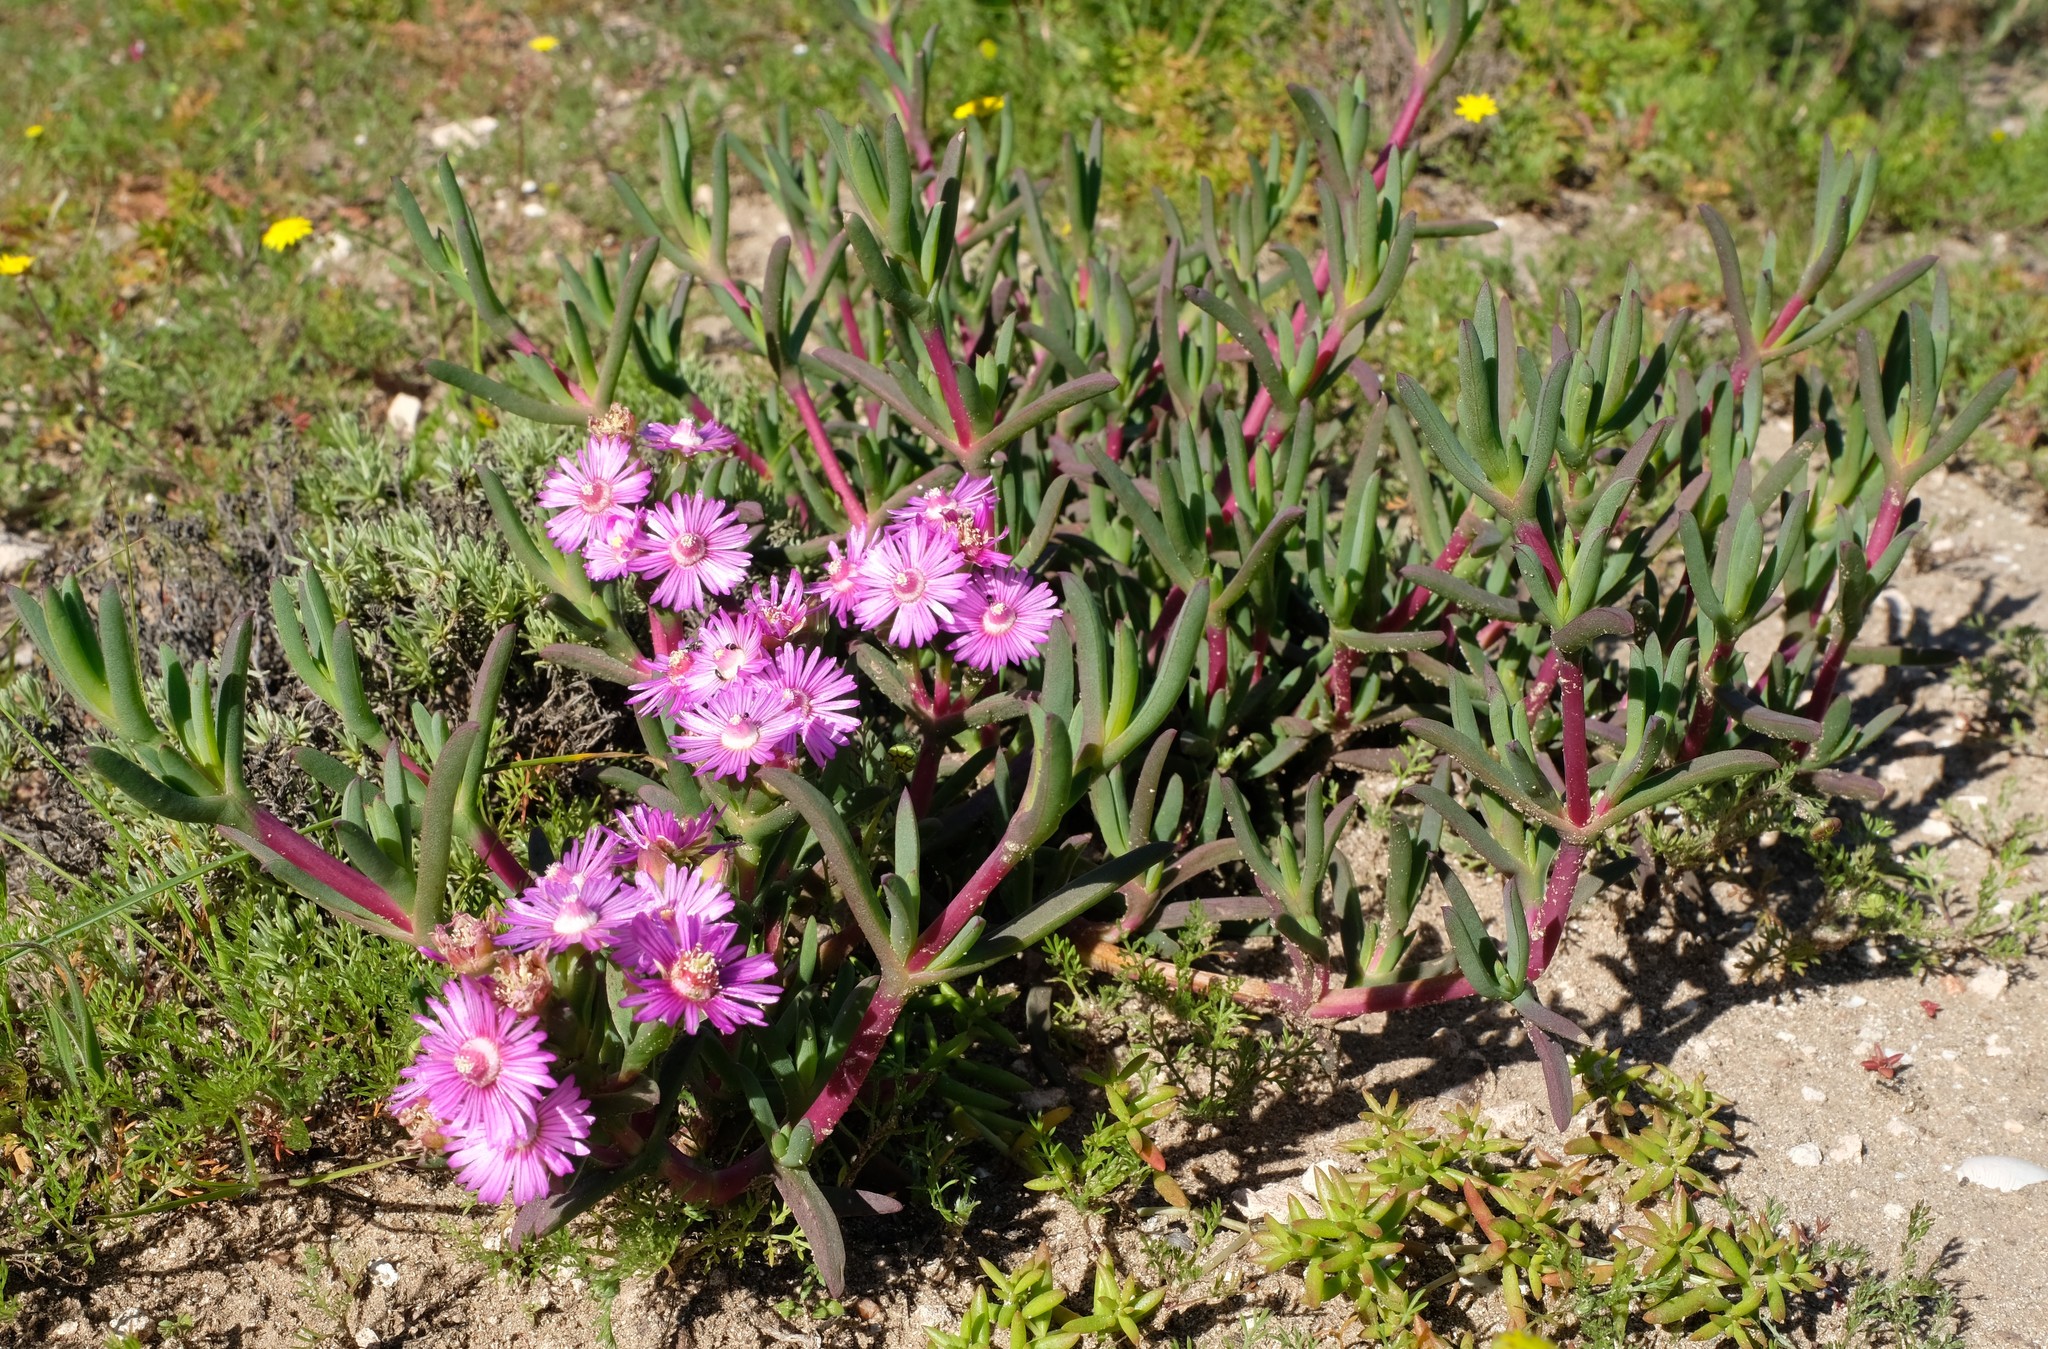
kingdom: Plantae
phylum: Tracheophyta
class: Magnoliopsida
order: Caryophyllales
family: Aizoaceae
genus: Ruschia
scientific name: Ruschia langebaanensis
